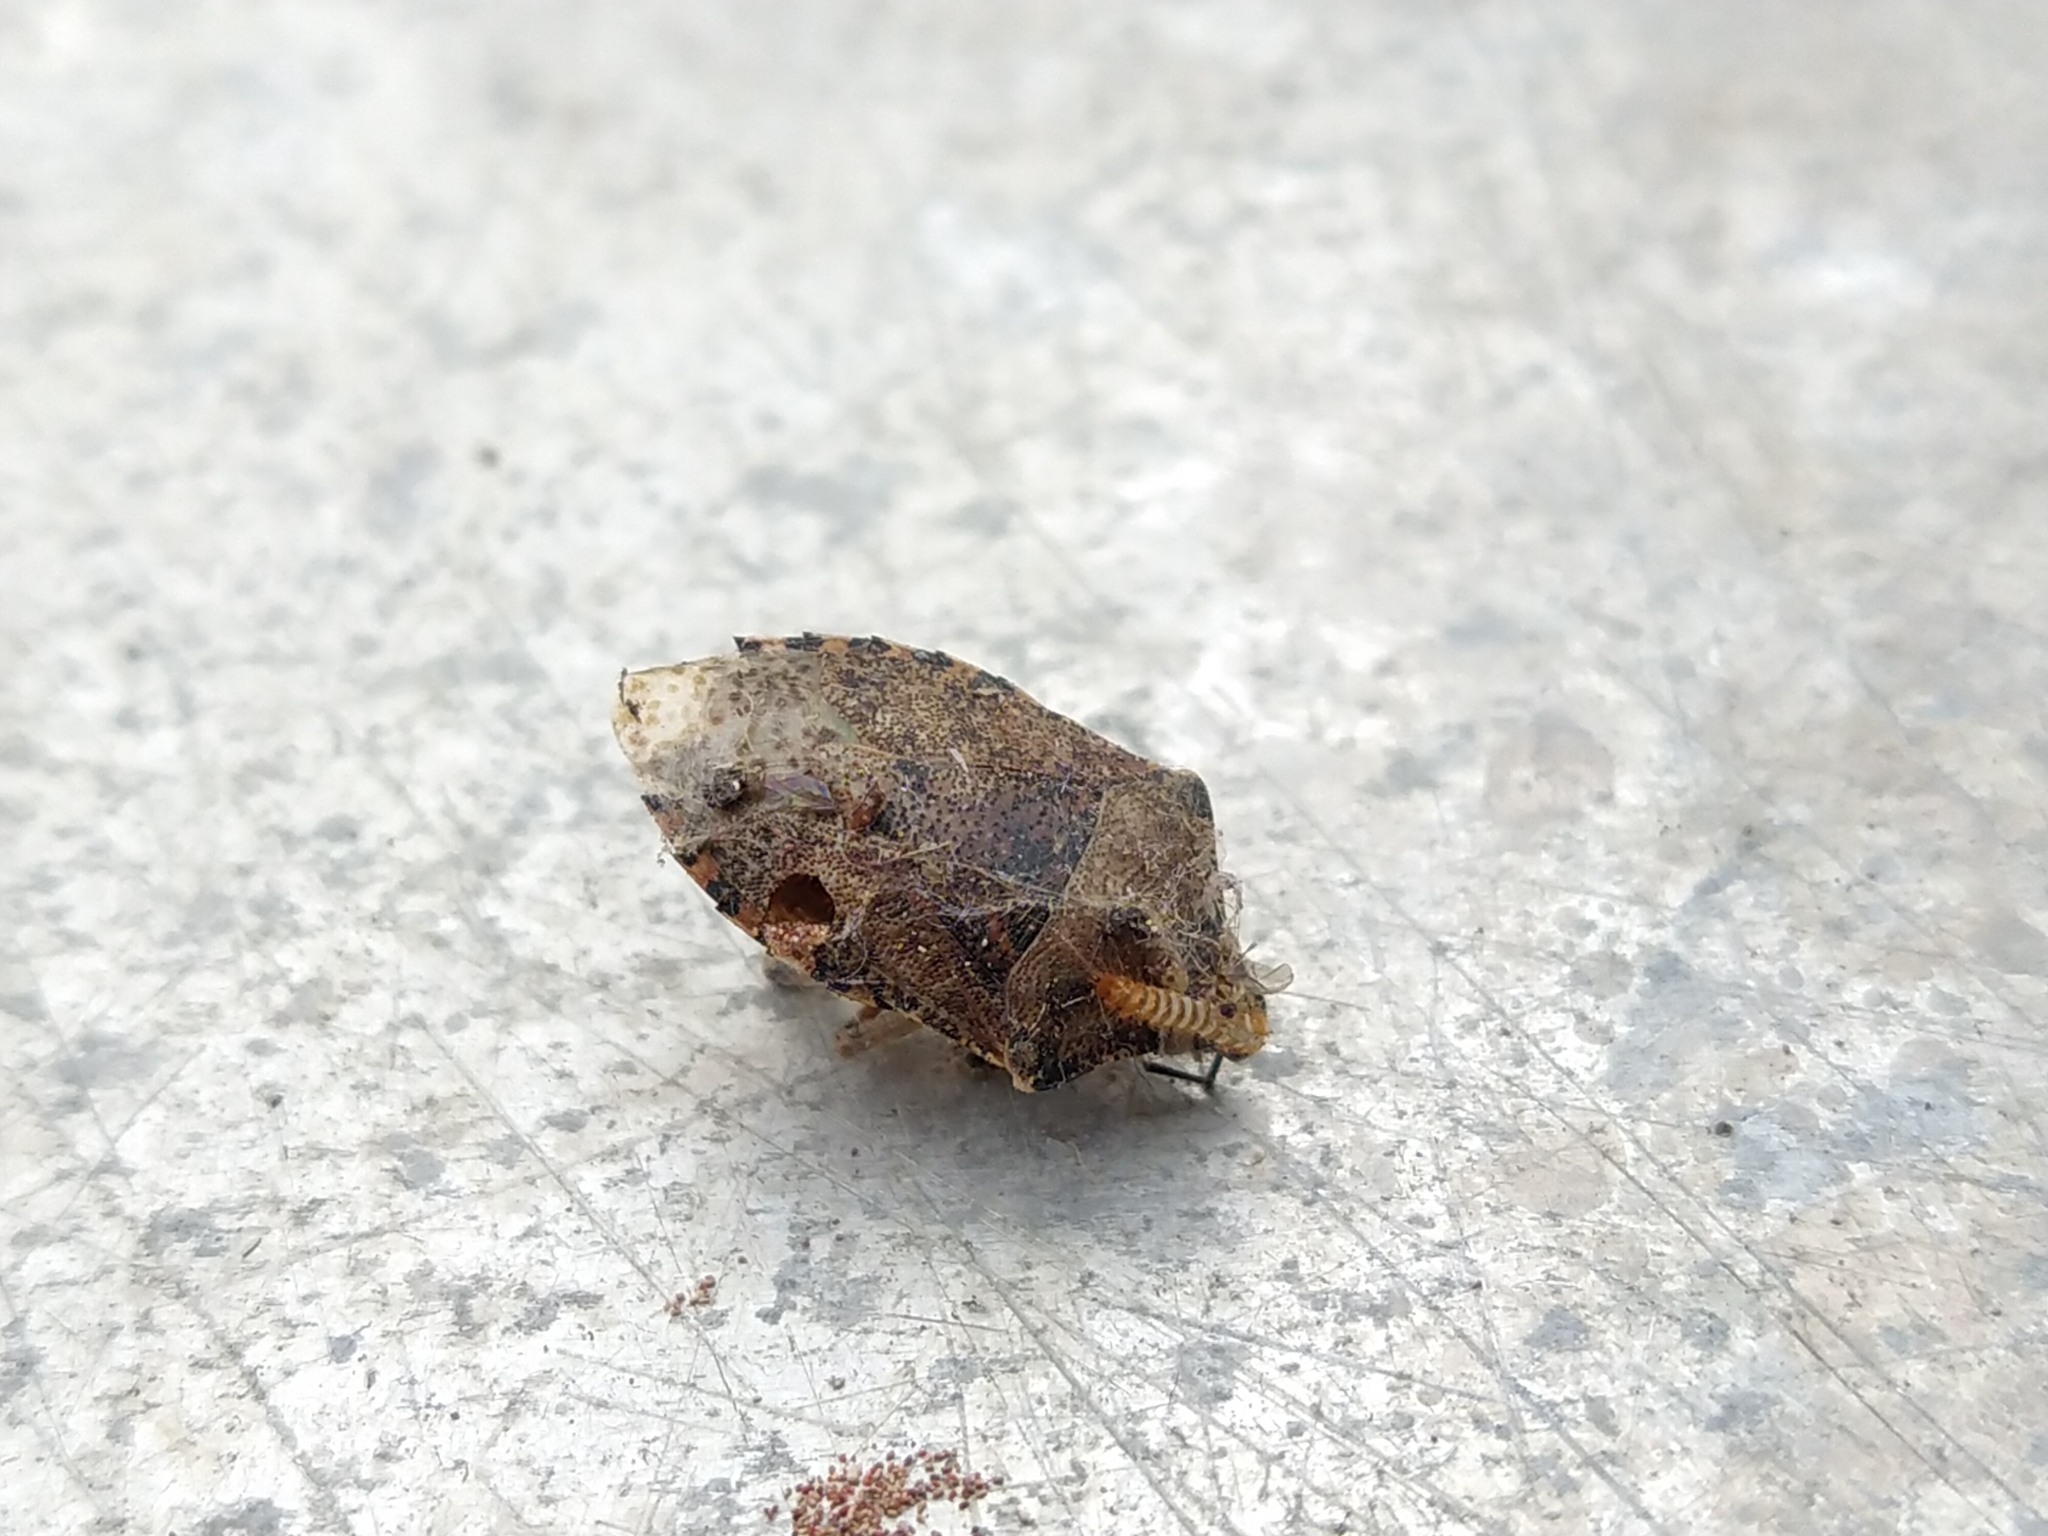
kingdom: Animalia
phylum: Arthropoda
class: Insecta
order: Hemiptera
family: Pentatomidae
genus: Rhaphigaster
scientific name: Rhaphigaster nebulosa
